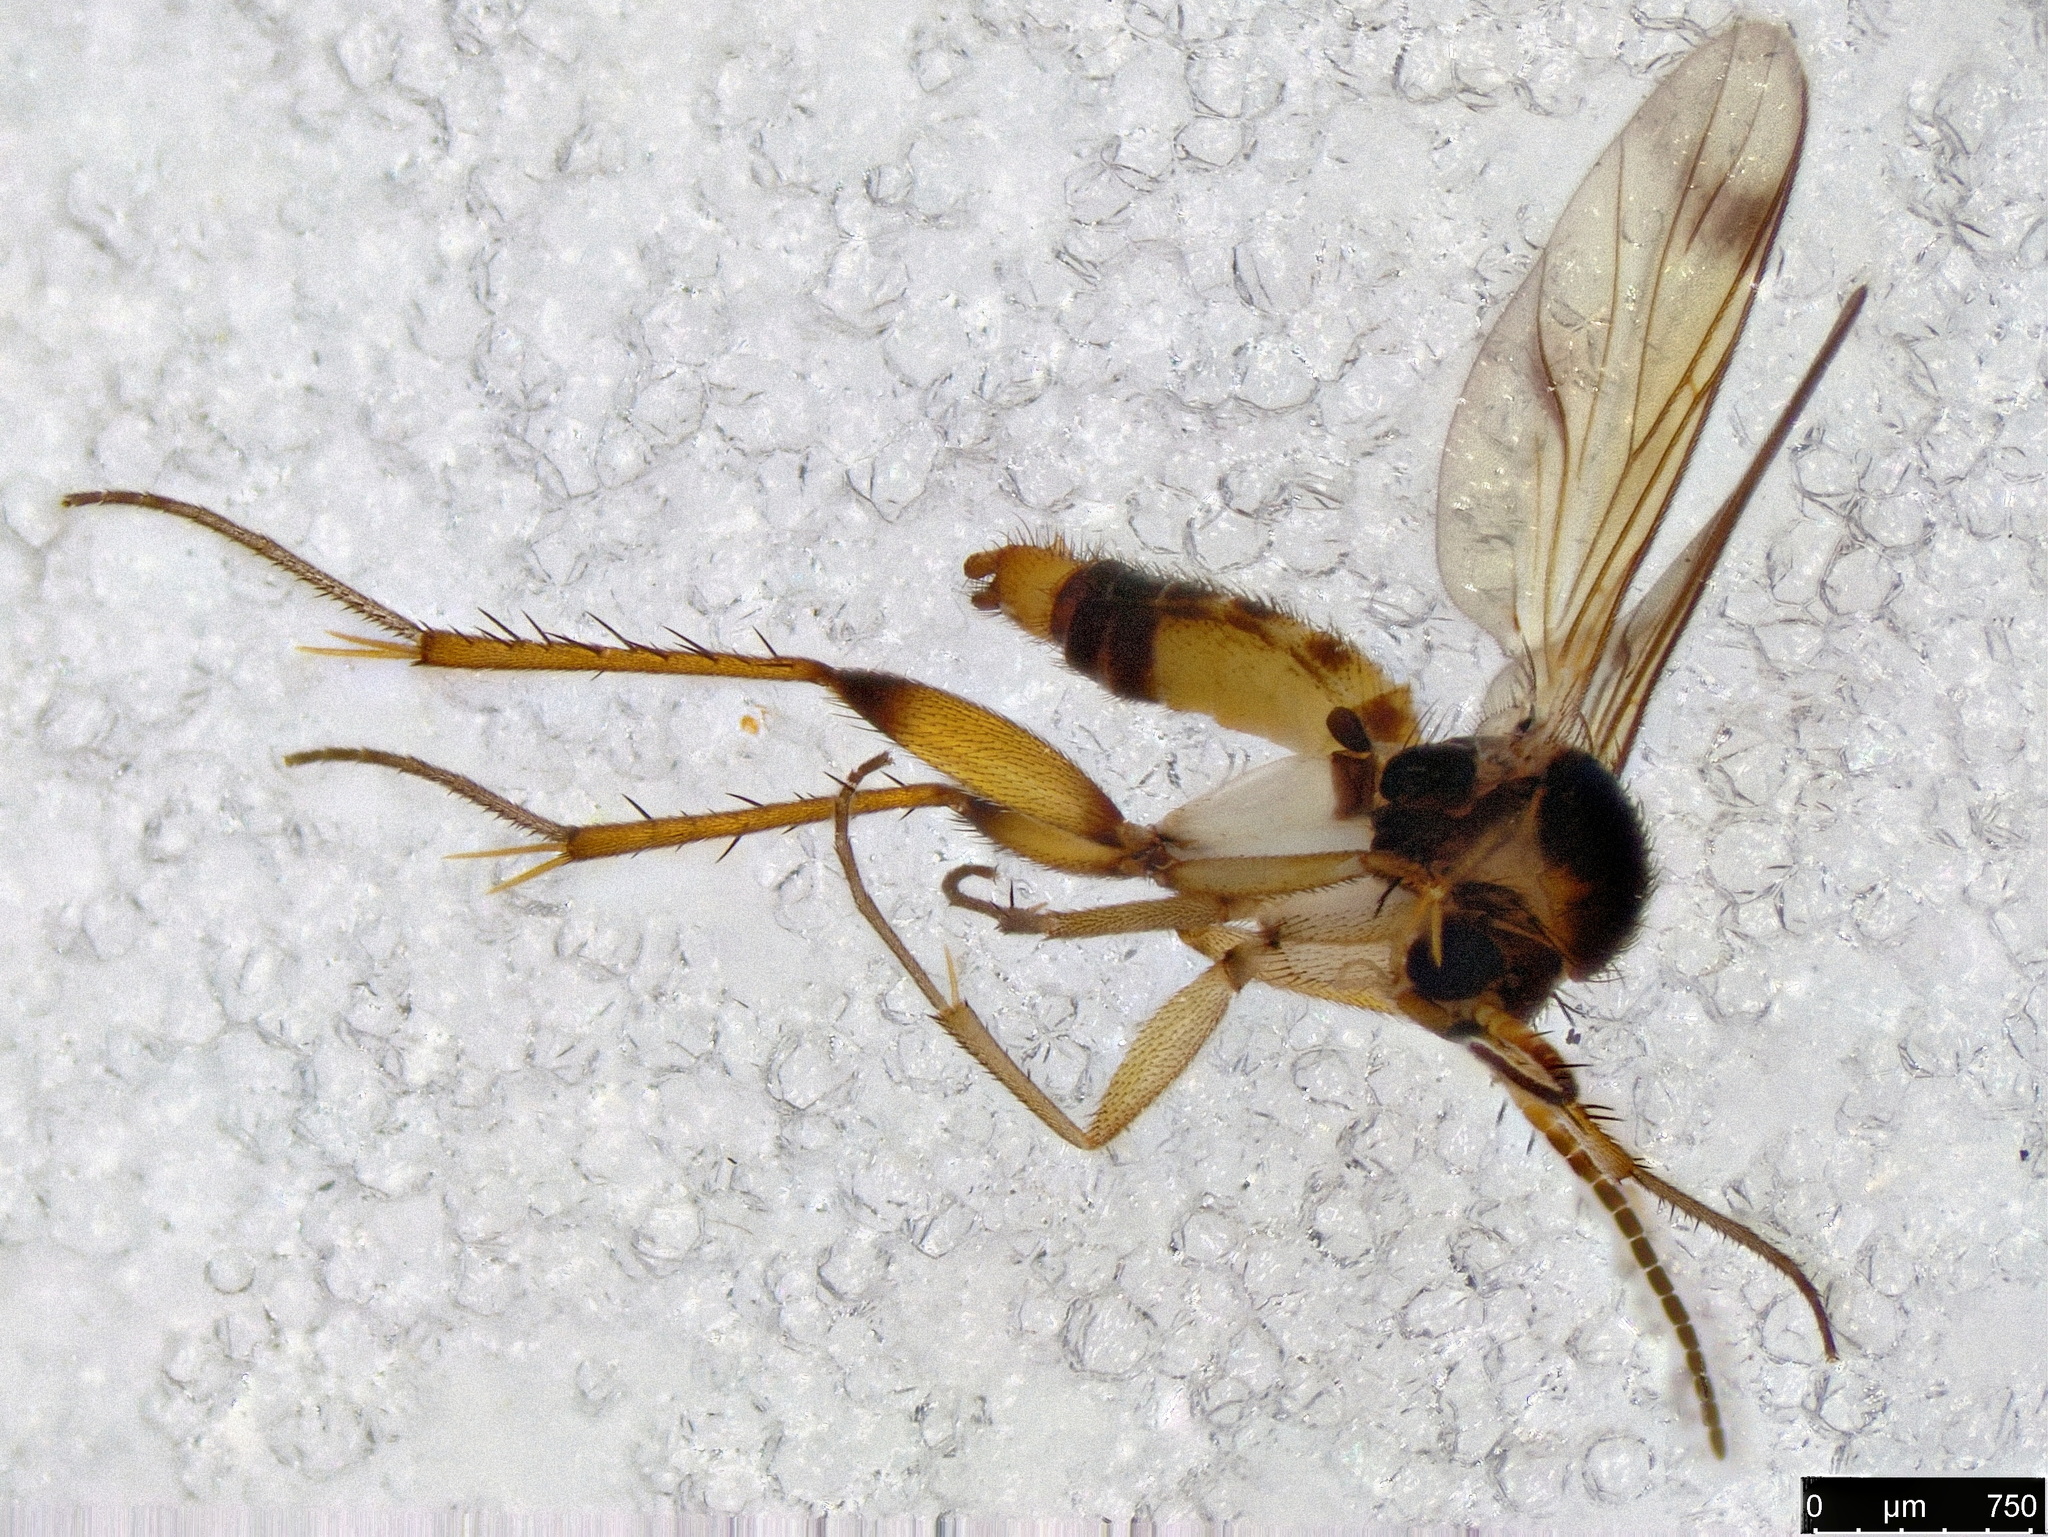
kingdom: Animalia
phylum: Arthropoda
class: Insecta
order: Diptera
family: Mycetophilidae
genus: Ateleia
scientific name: Ateleia spadicithorax
